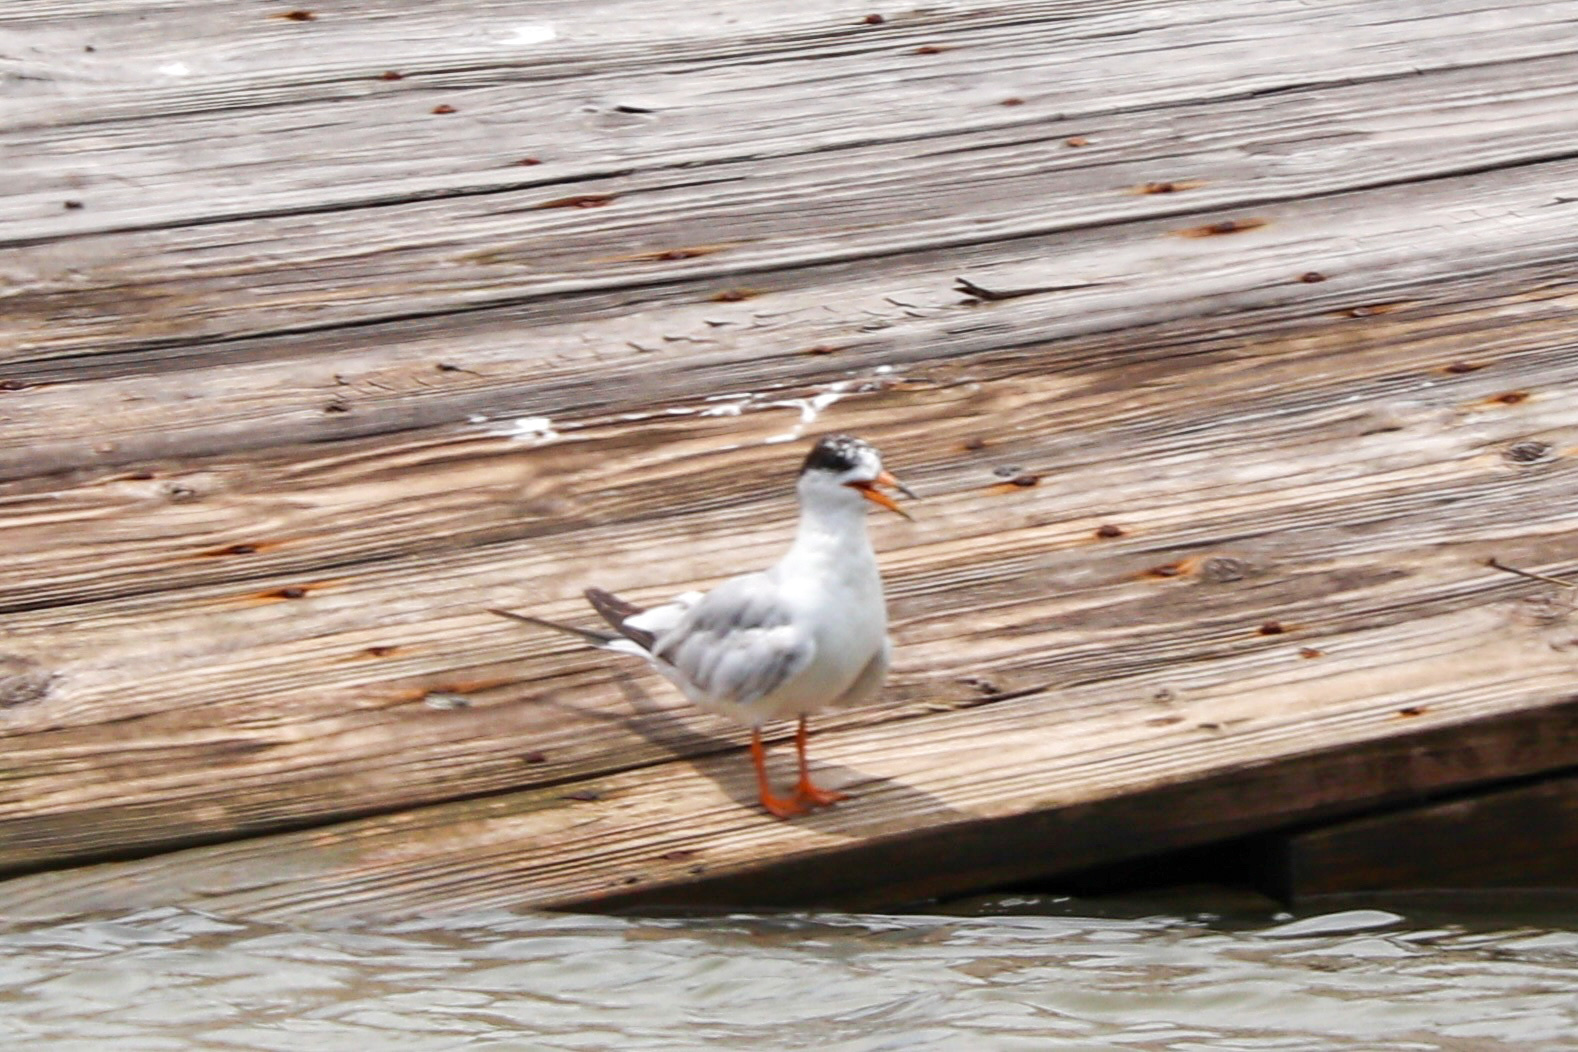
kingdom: Animalia
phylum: Chordata
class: Aves
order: Charadriiformes
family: Laridae
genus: Sterna
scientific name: Sterna forsteri
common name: Forster's tern
